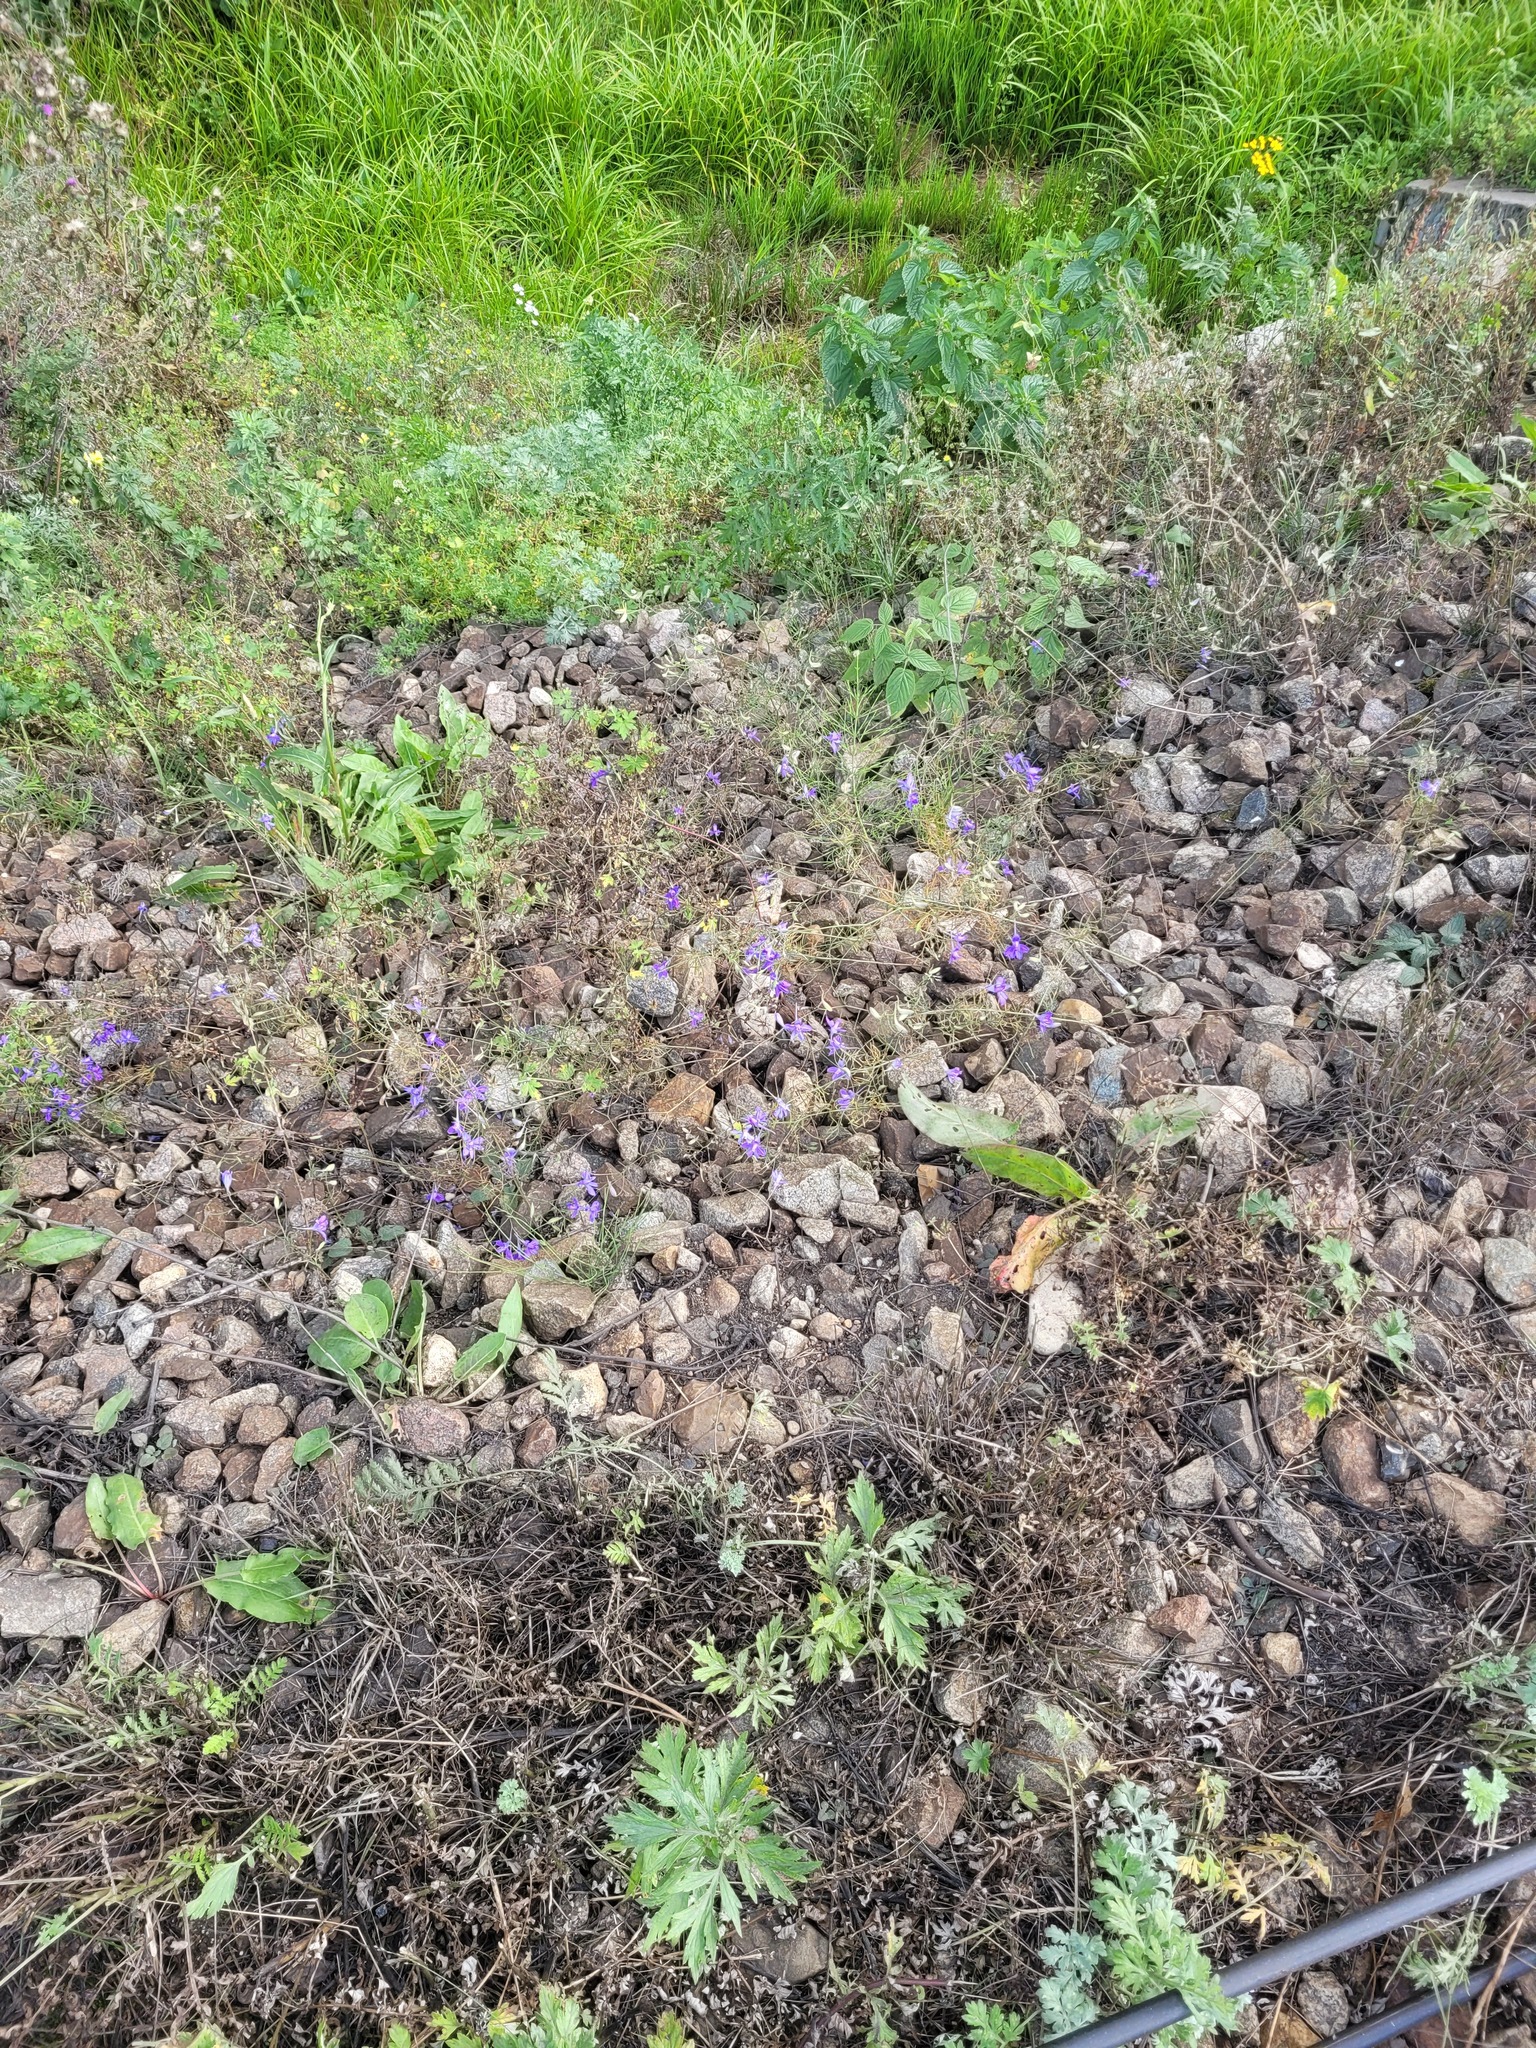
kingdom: Plantae
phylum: Tracheophyta
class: Magnoliopsida
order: Ranunculales
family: Ranunculaceae
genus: Delphinium
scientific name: Delphinium consolida
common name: Branching larkspur
